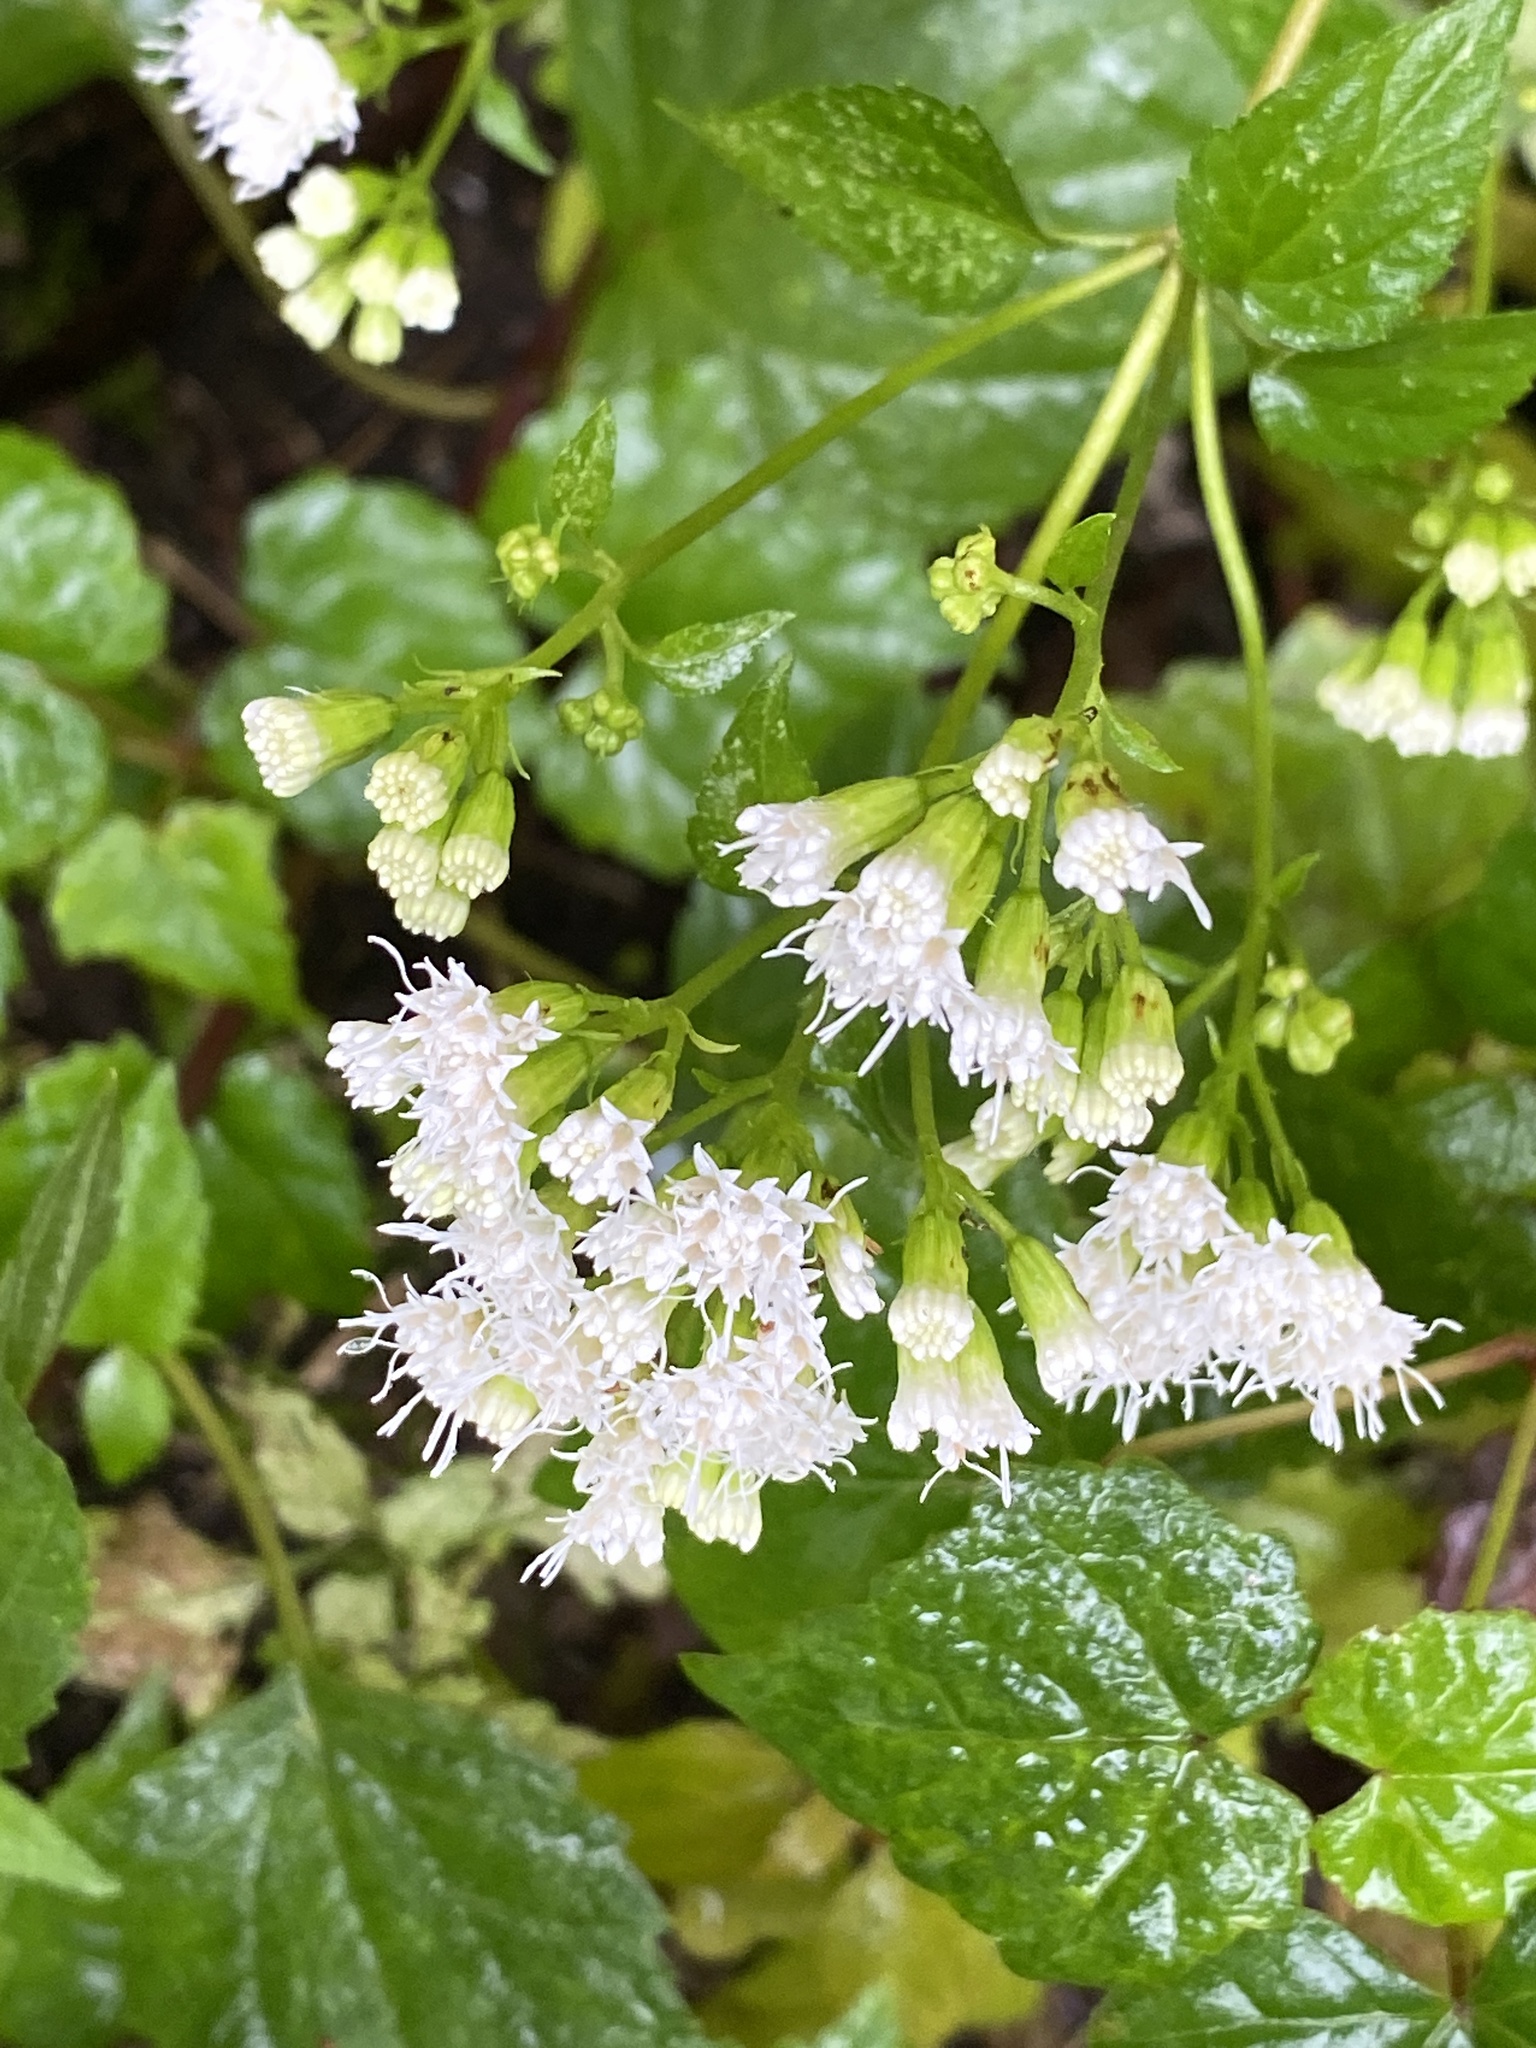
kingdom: Plantae
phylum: Tracheophyta
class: Magnoliopsida
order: Asterales
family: Asteraceae
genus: Ageratina
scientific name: Ageratina altissima
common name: White snakeroot
